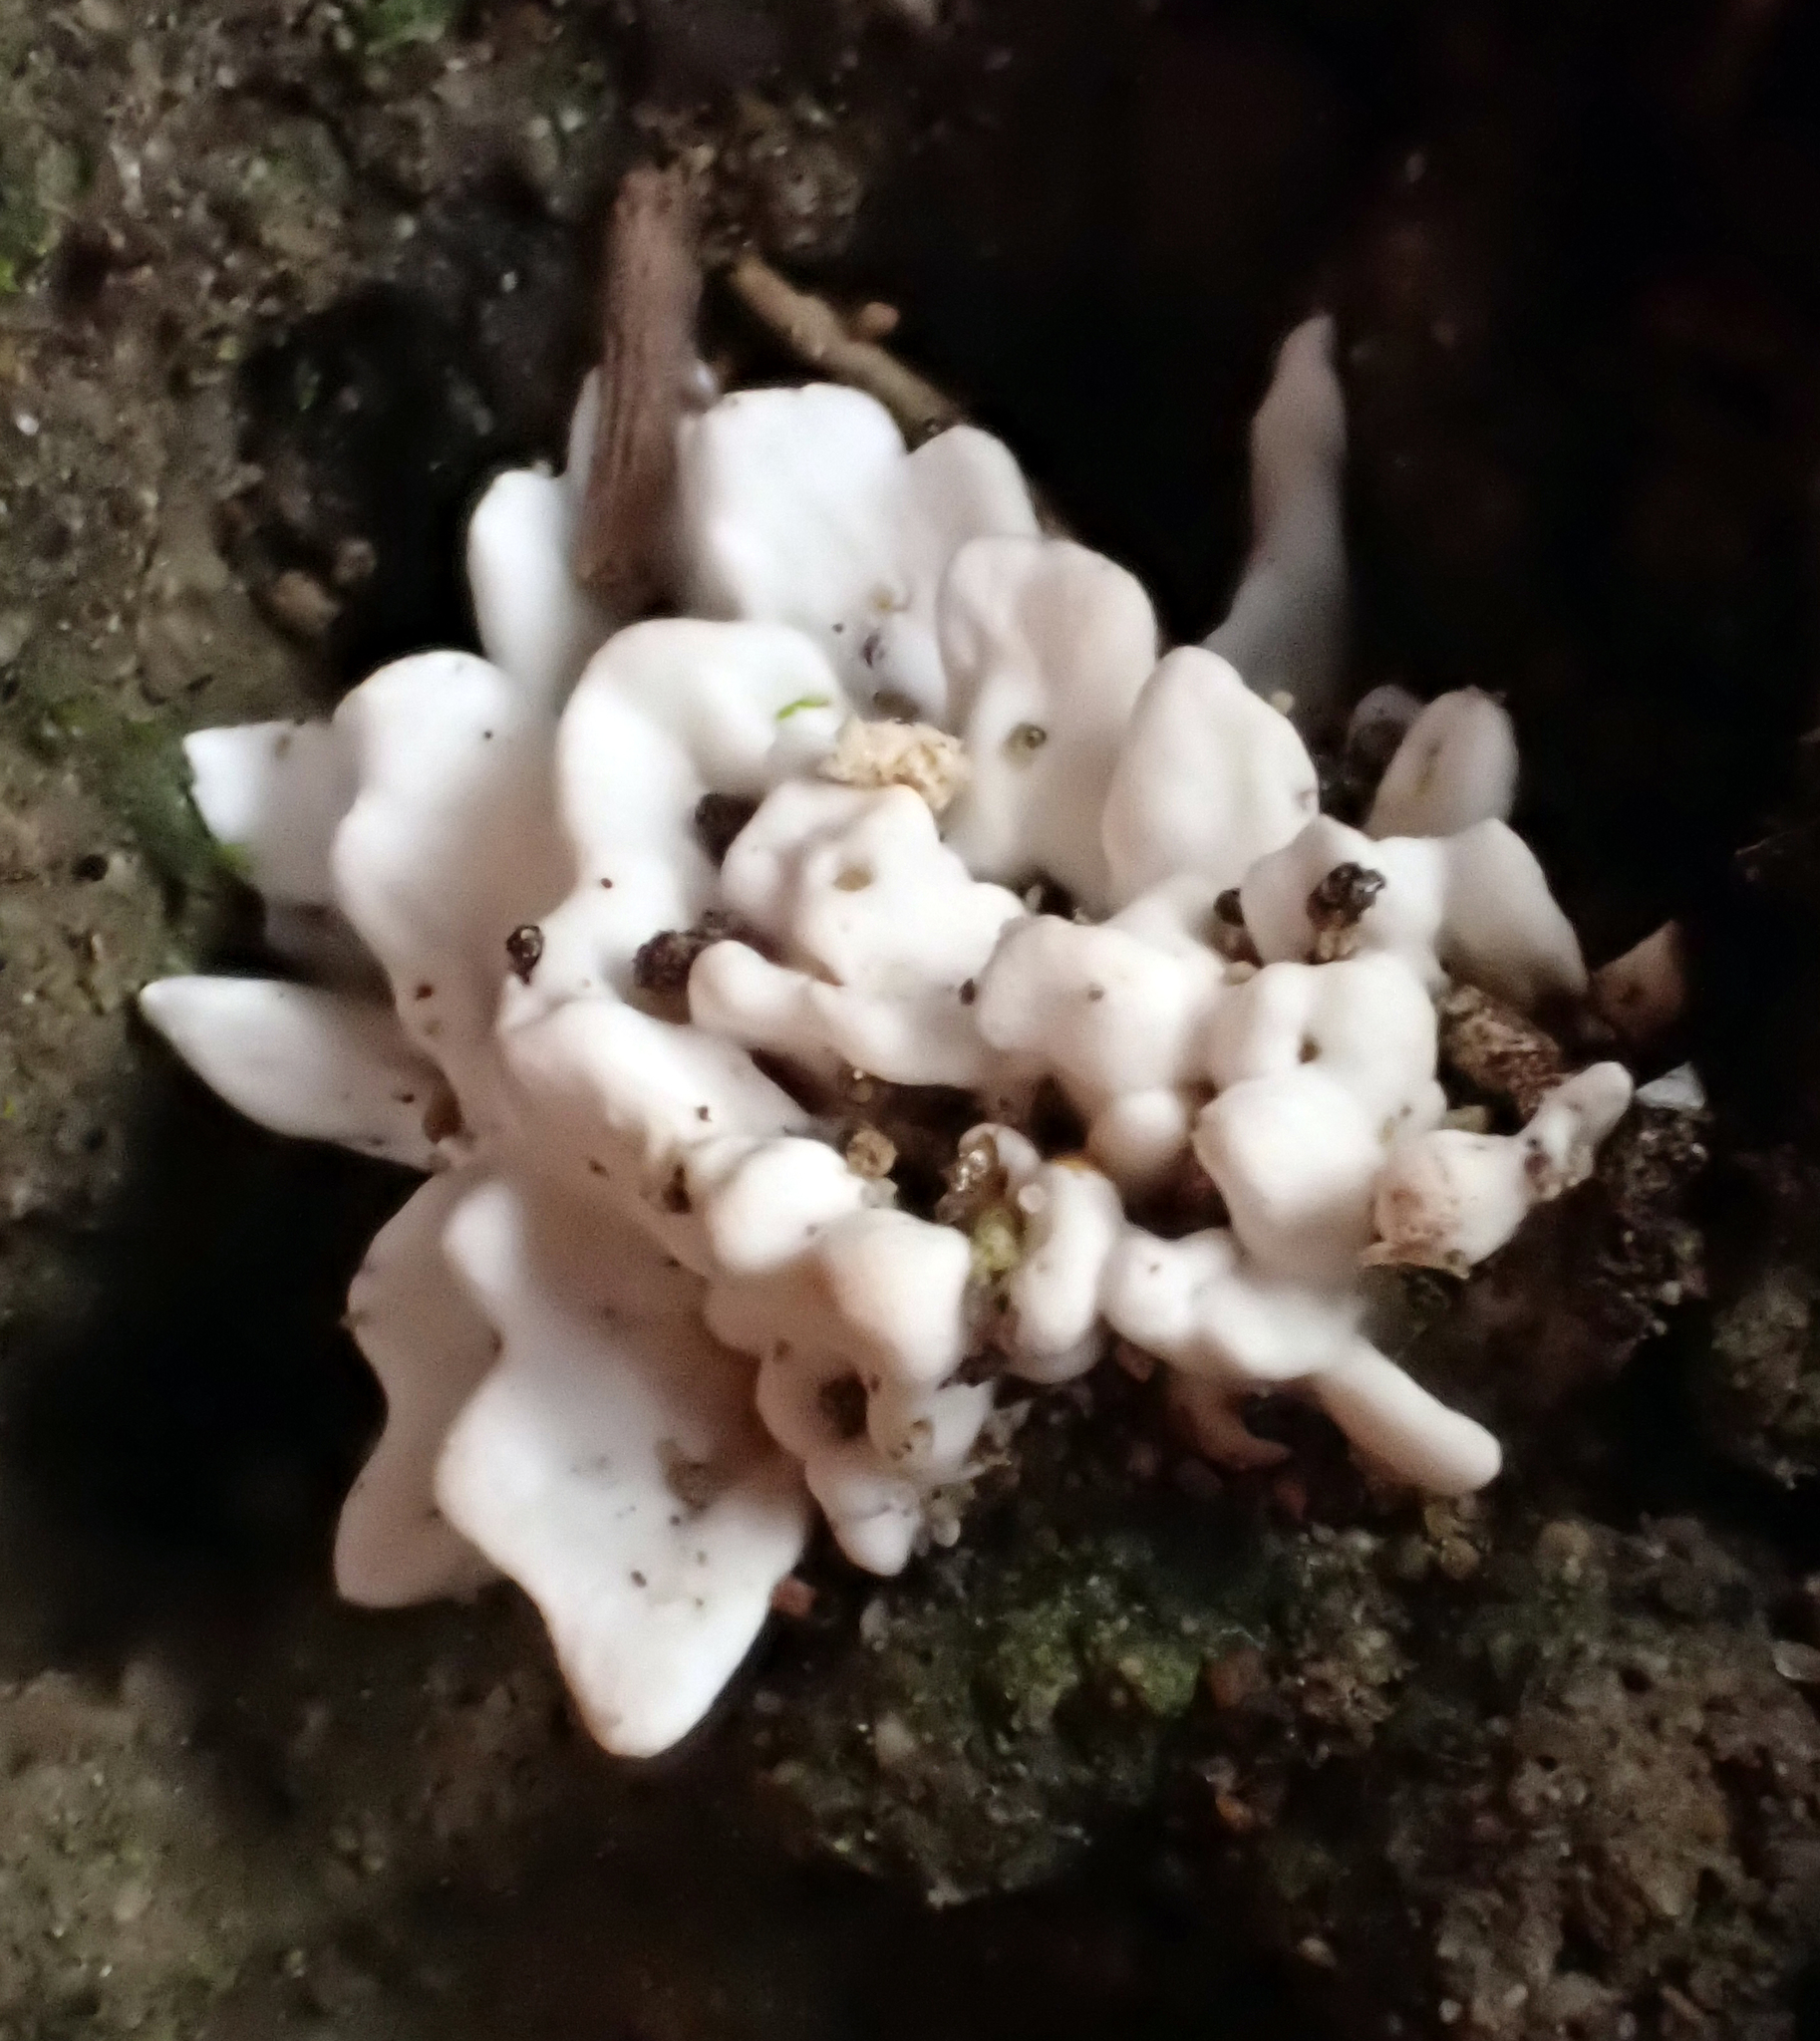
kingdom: Fungi
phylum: Basidiomycota
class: Agaricomycetes
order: Stereopsidales
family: Stereopsidaceae
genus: Stereopsis
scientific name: Stereopsis hiscens
